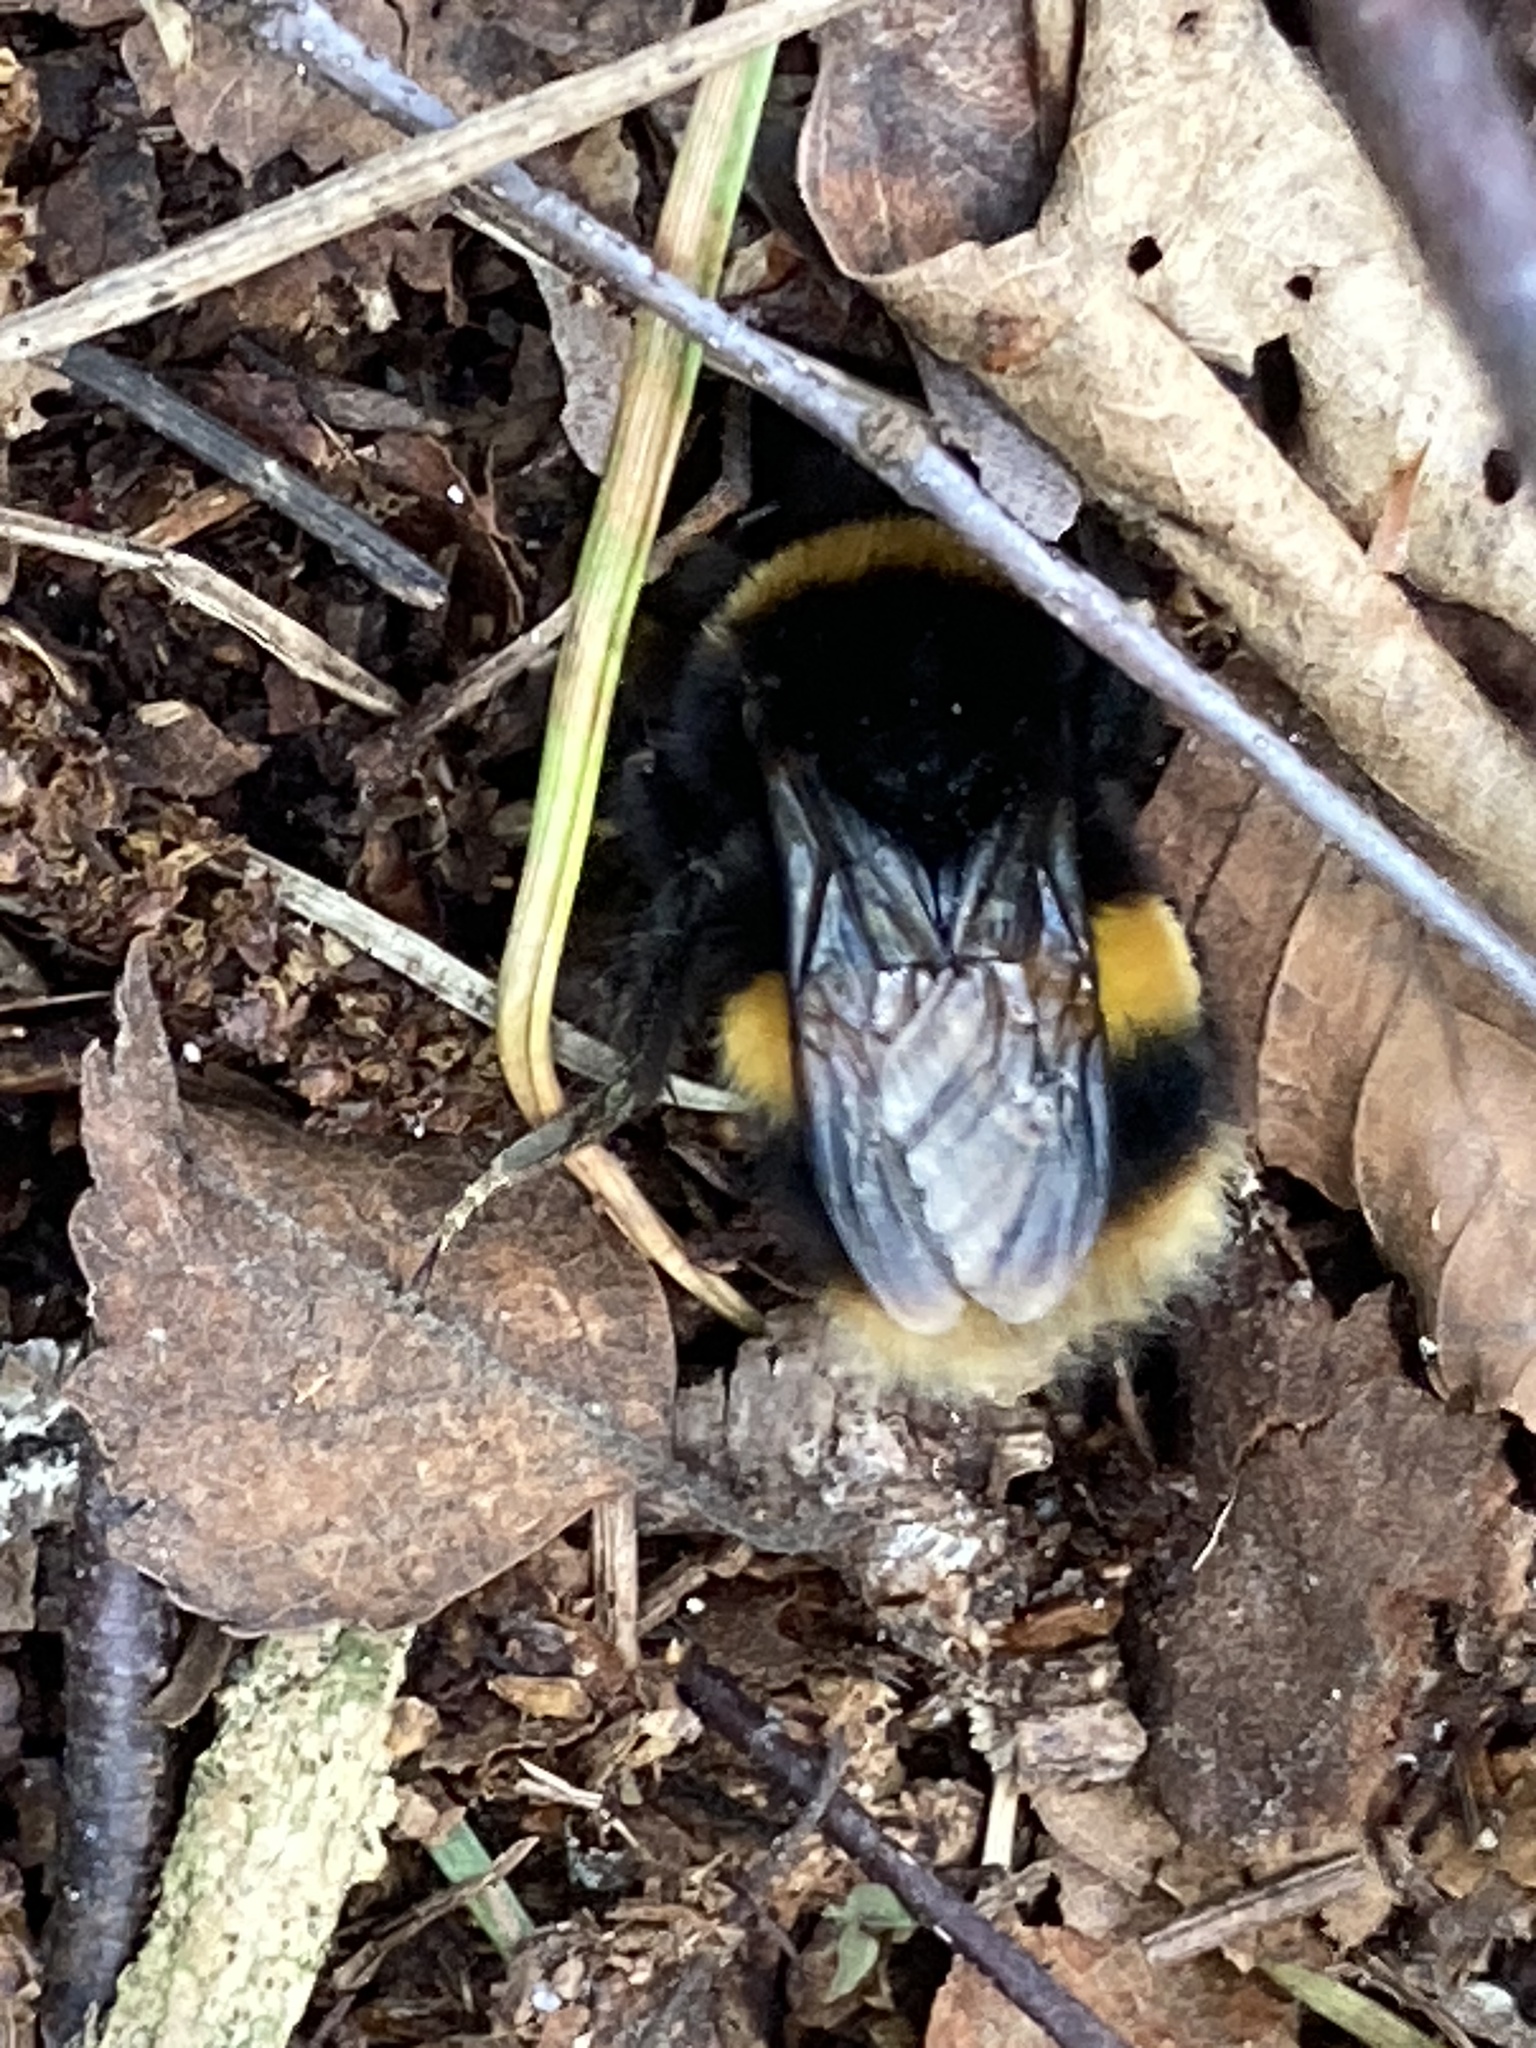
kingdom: Animalia
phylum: Arthropoda
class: Insecta
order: Hymenoptera
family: Apidae
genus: Bombus
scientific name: Bombus terrestris
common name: Buff-tailed bumblebee
